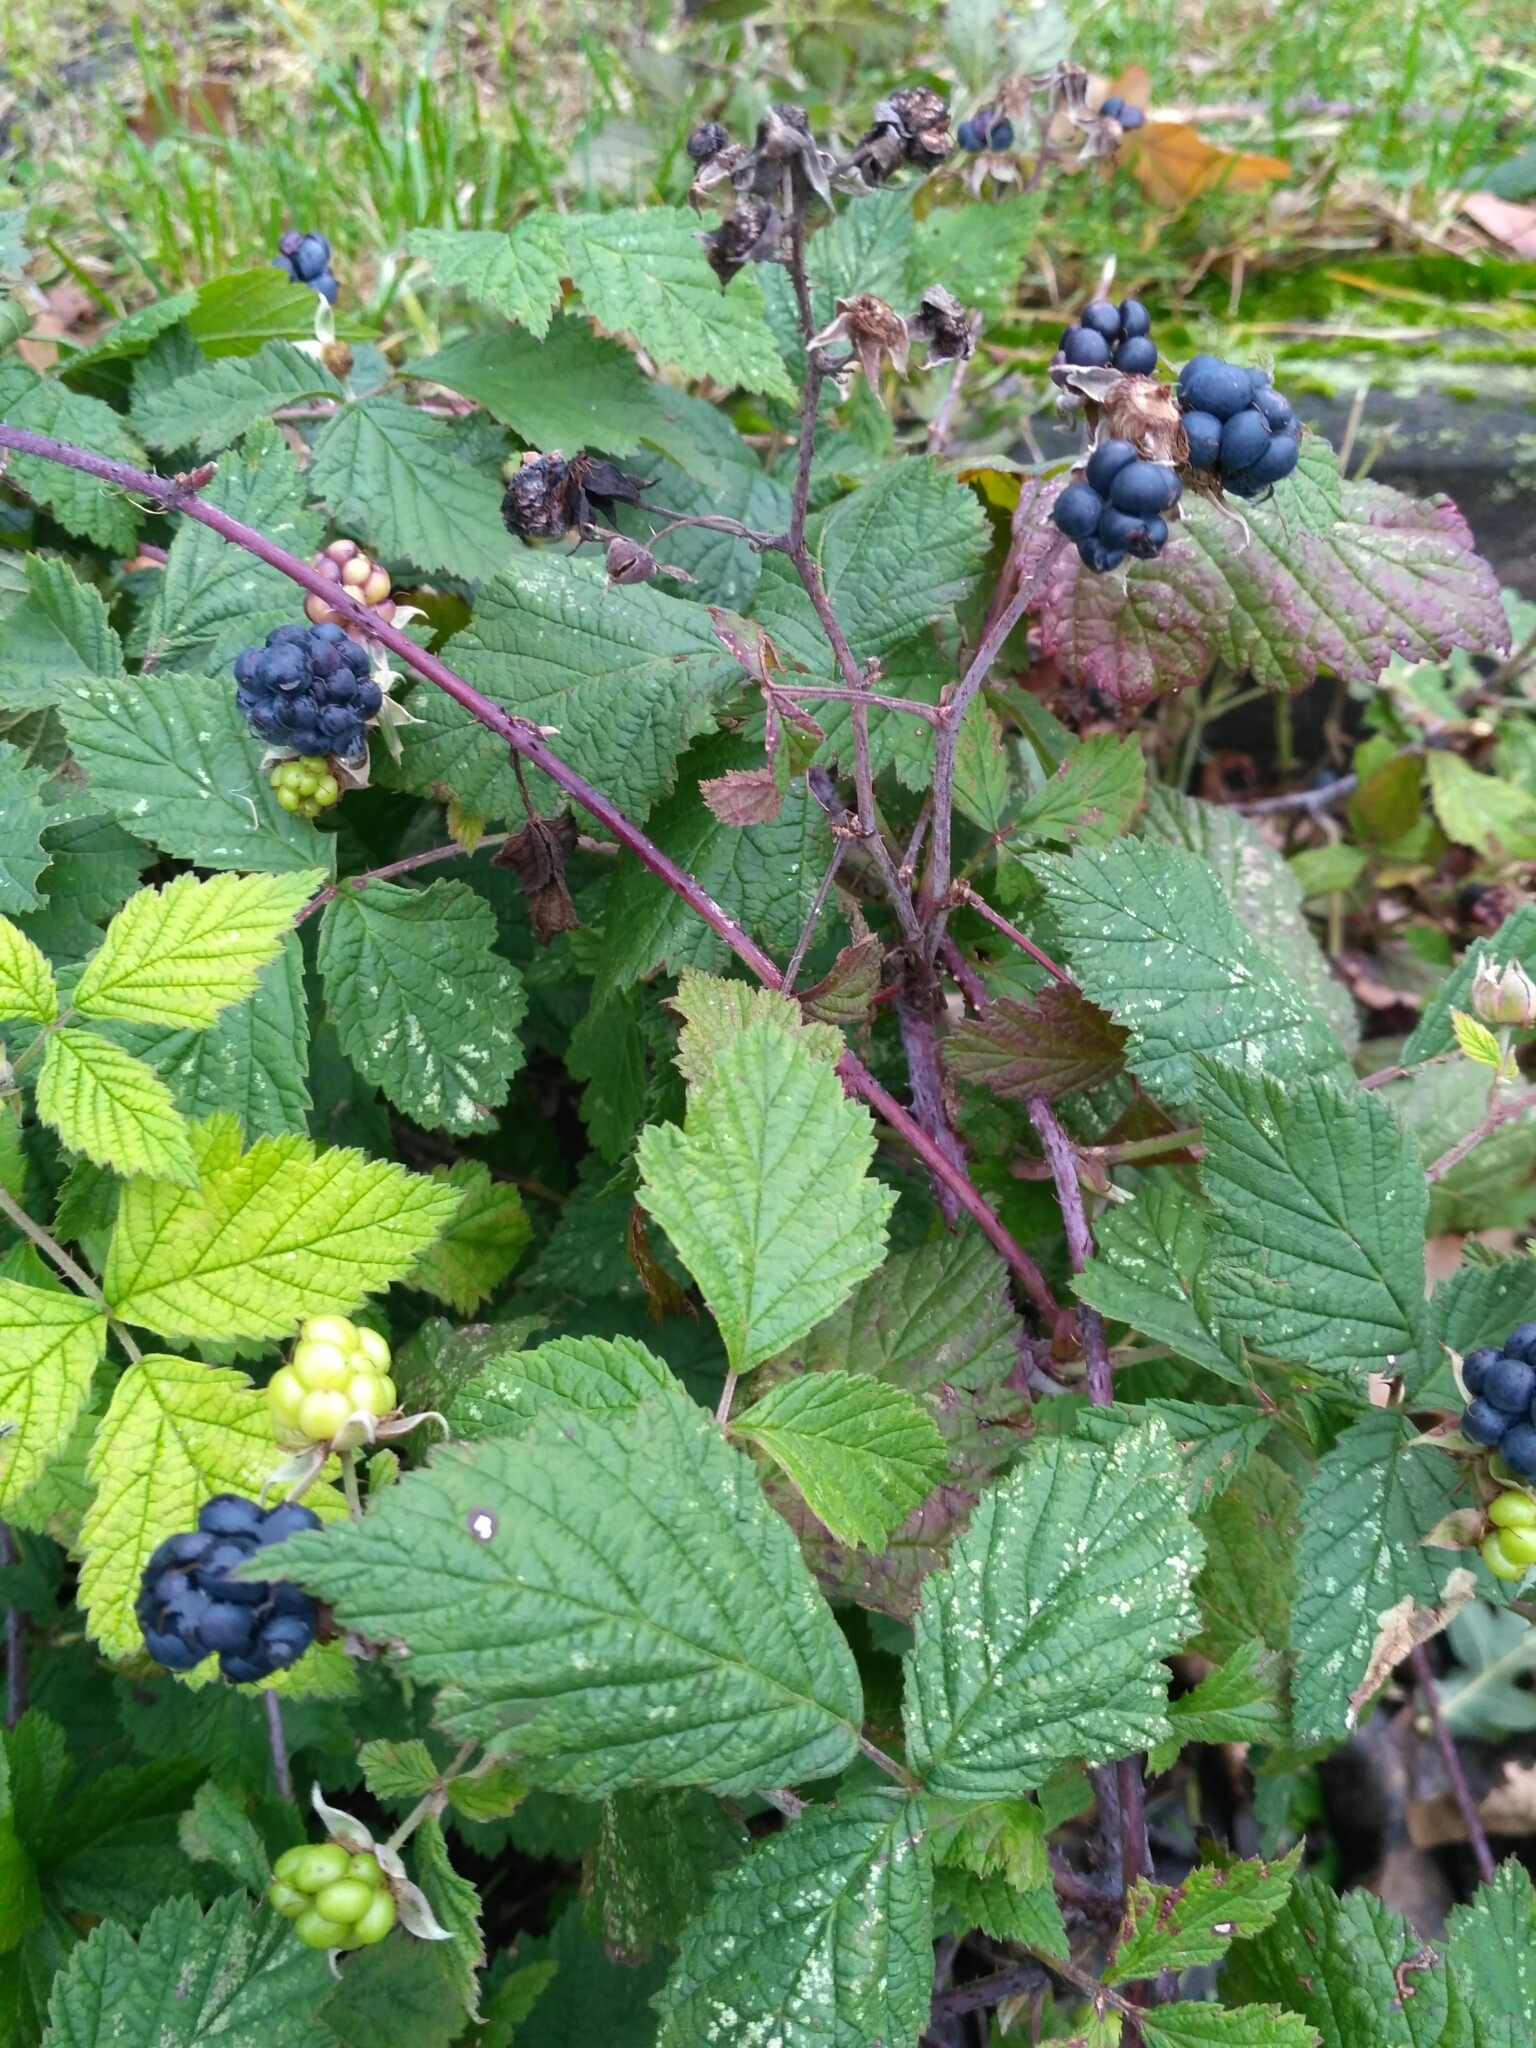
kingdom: Plantae
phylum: Tracheophyta
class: Magnoliopsida
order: Rosales
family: Rosaceae
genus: Rubus
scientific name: Rubus caesius
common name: Dewberry
